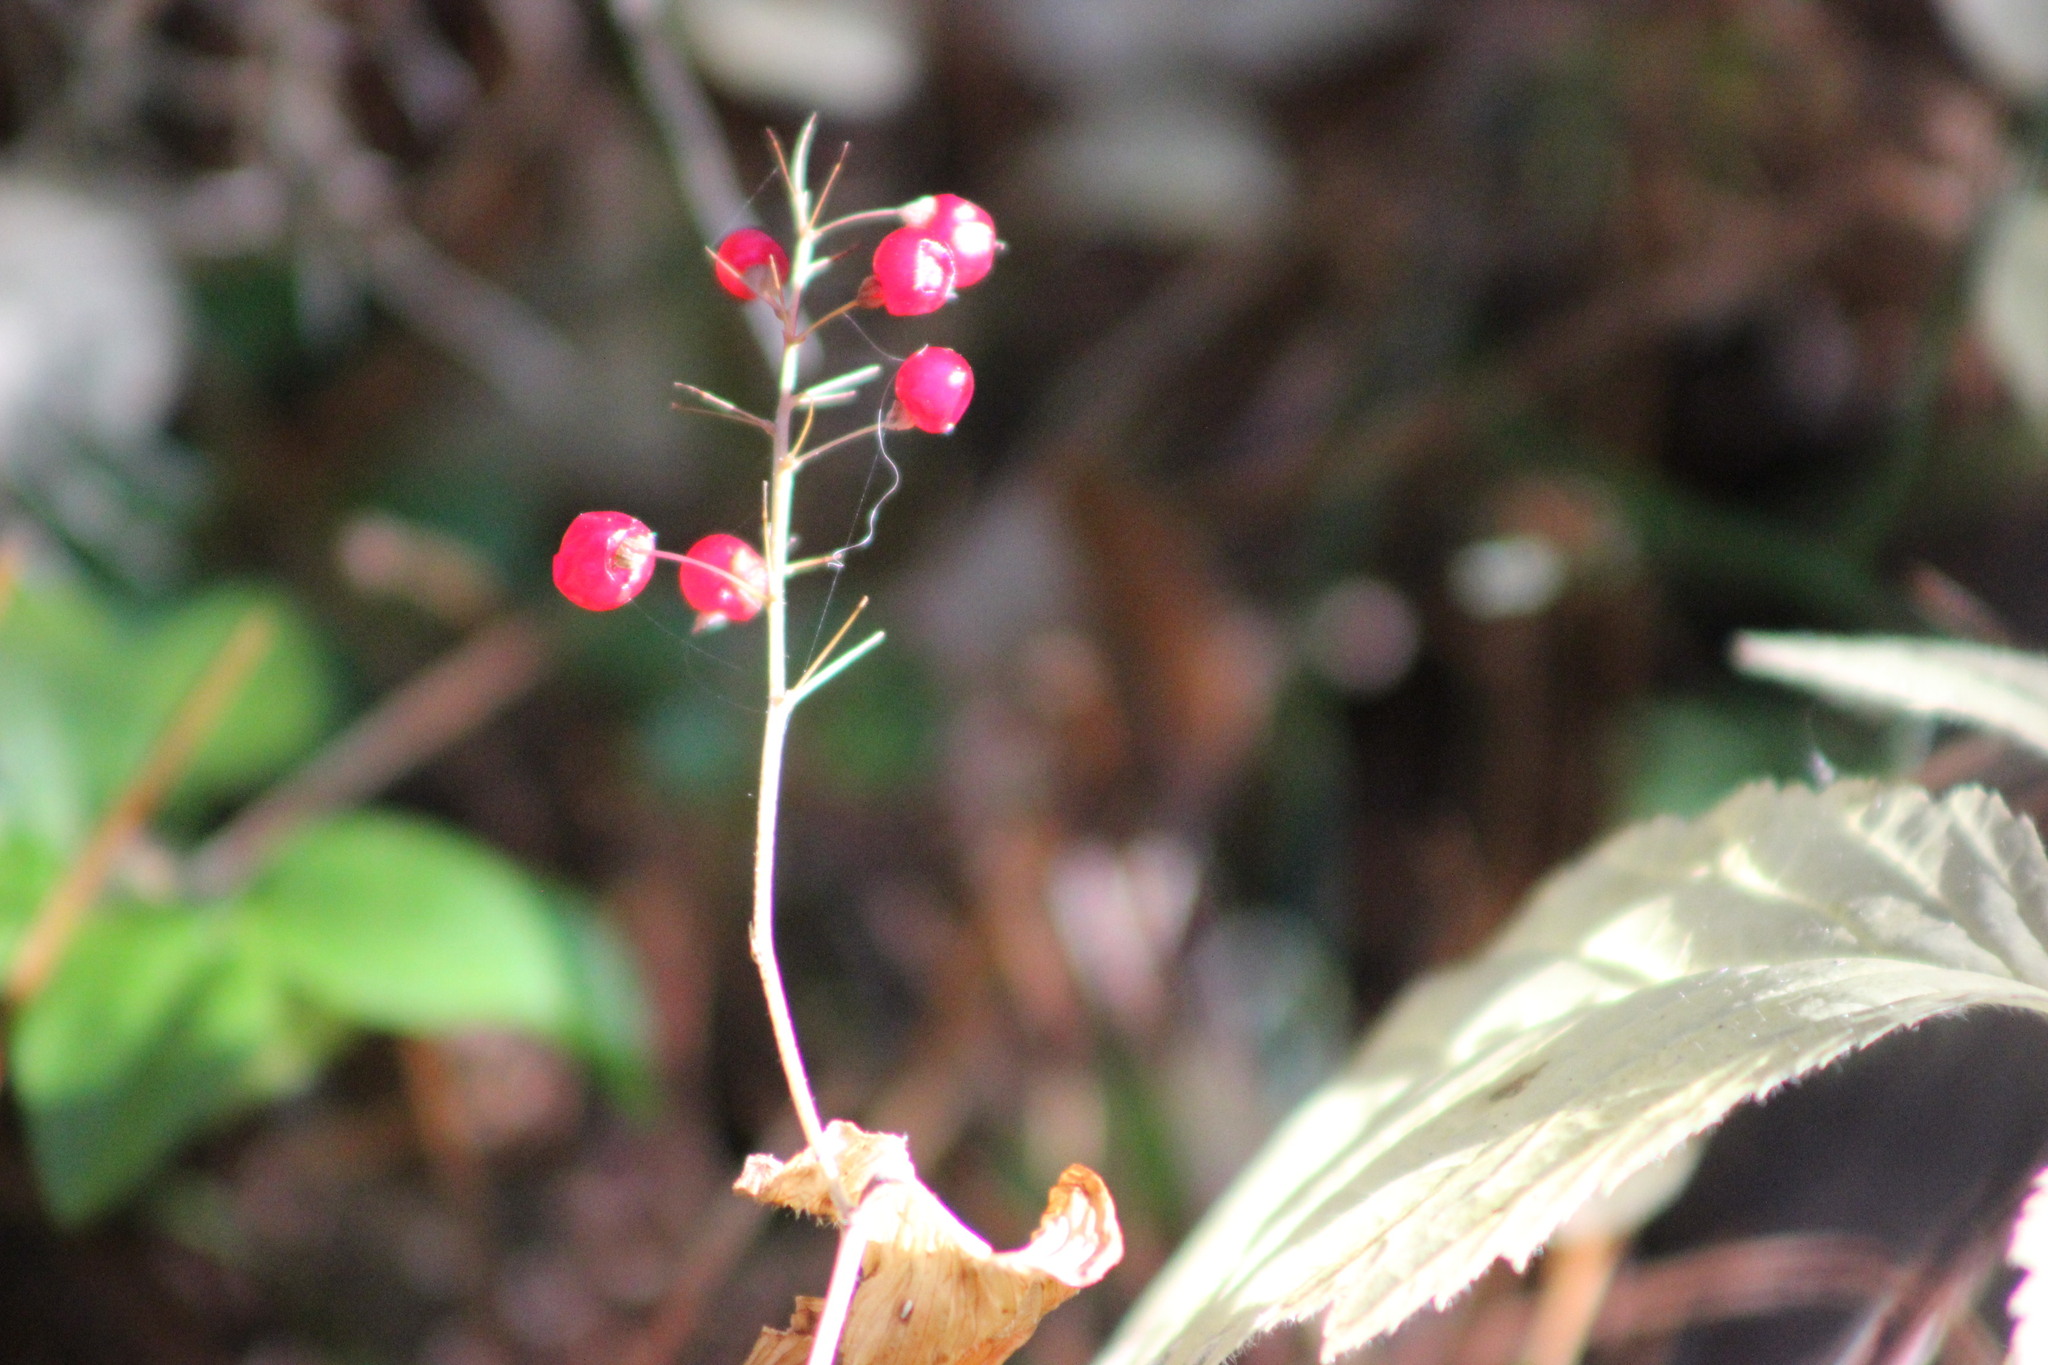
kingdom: Plantae
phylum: Tracheophyta
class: Liliopsida
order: Asparagales
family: Asparagaceae
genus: Maianthemum
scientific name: Maianthemum bifolium
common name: May lily
